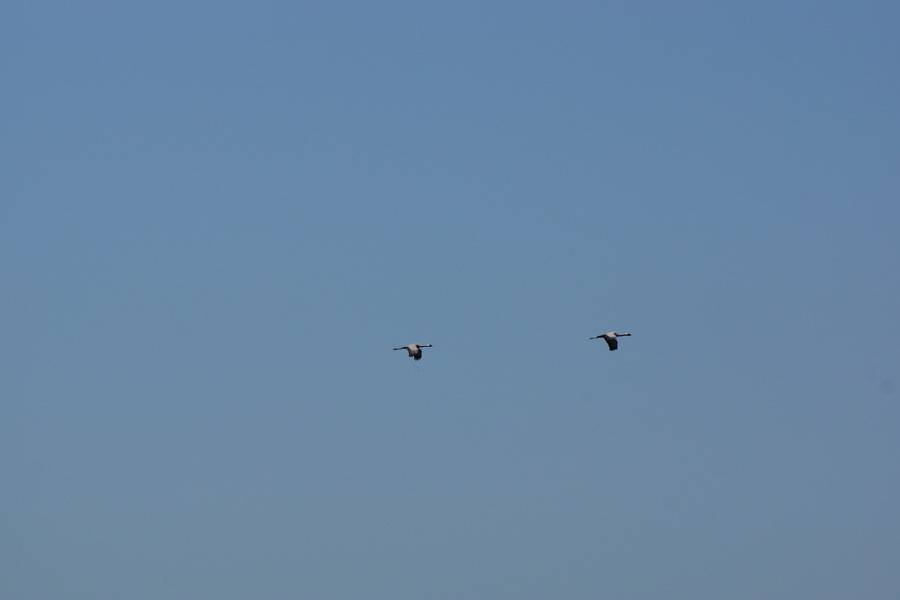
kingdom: Animalia
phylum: Chordata
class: Aves
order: Gruiformes
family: Gruidae
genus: Anthropoides
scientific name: Anthropoides virgo
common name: Demoiselle crane
